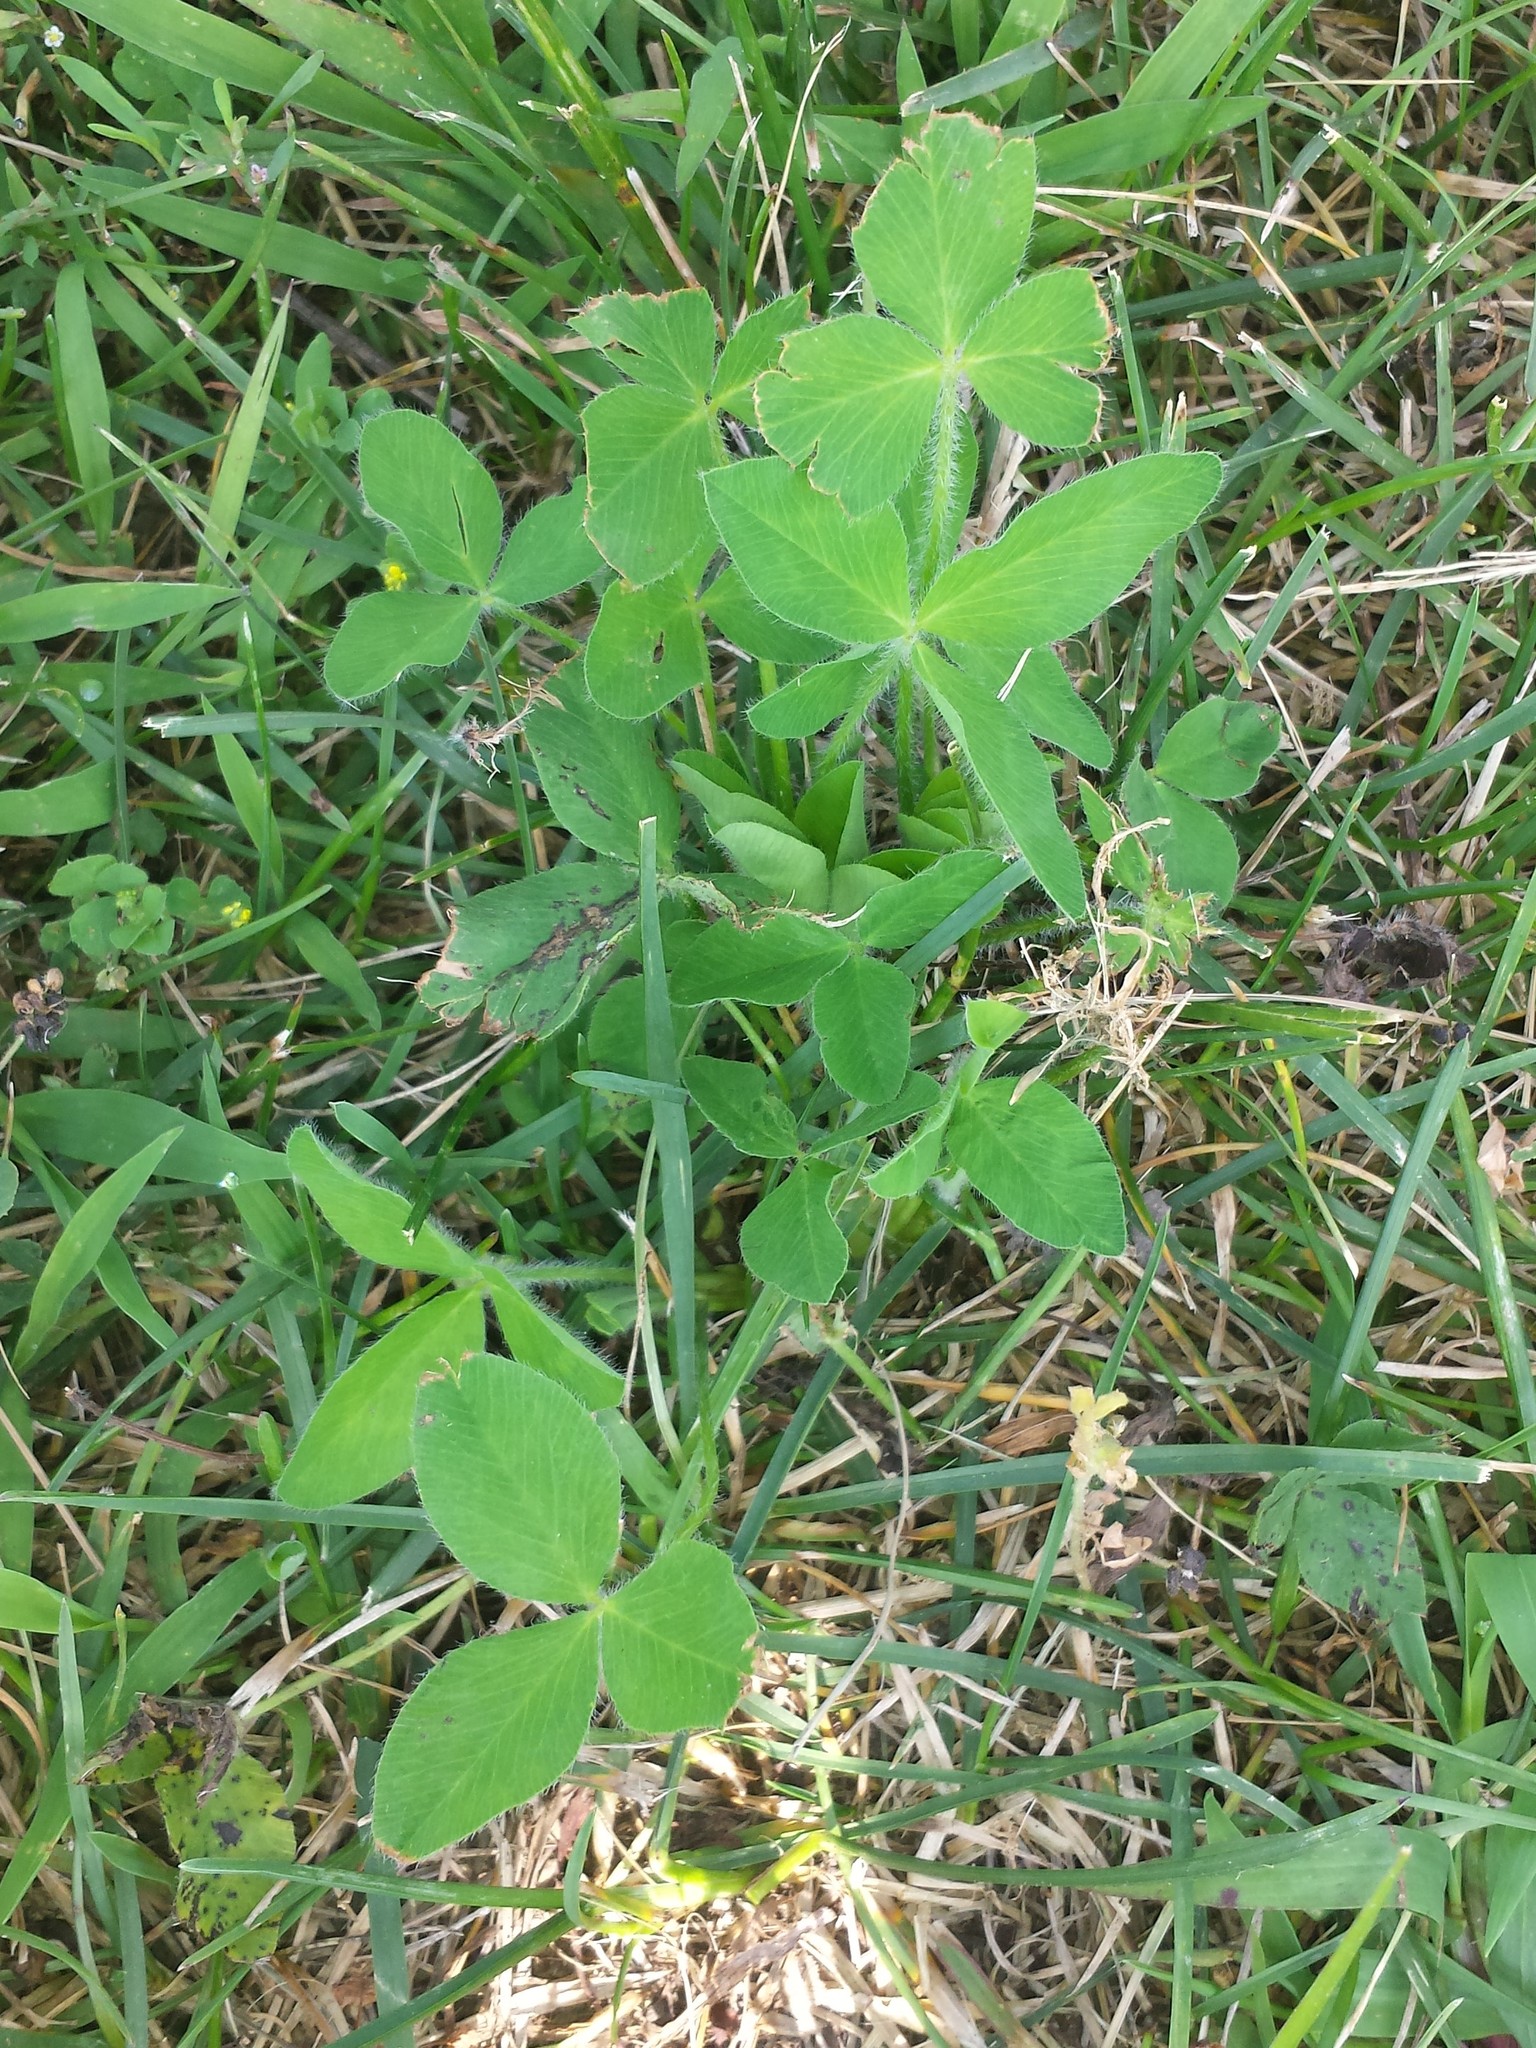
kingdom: Plantae
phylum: Tracheophyta
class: Magnoliopsida
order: Fabales
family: Fabaceae
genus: Trifolium
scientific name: Trifolium pratense
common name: Red clover
